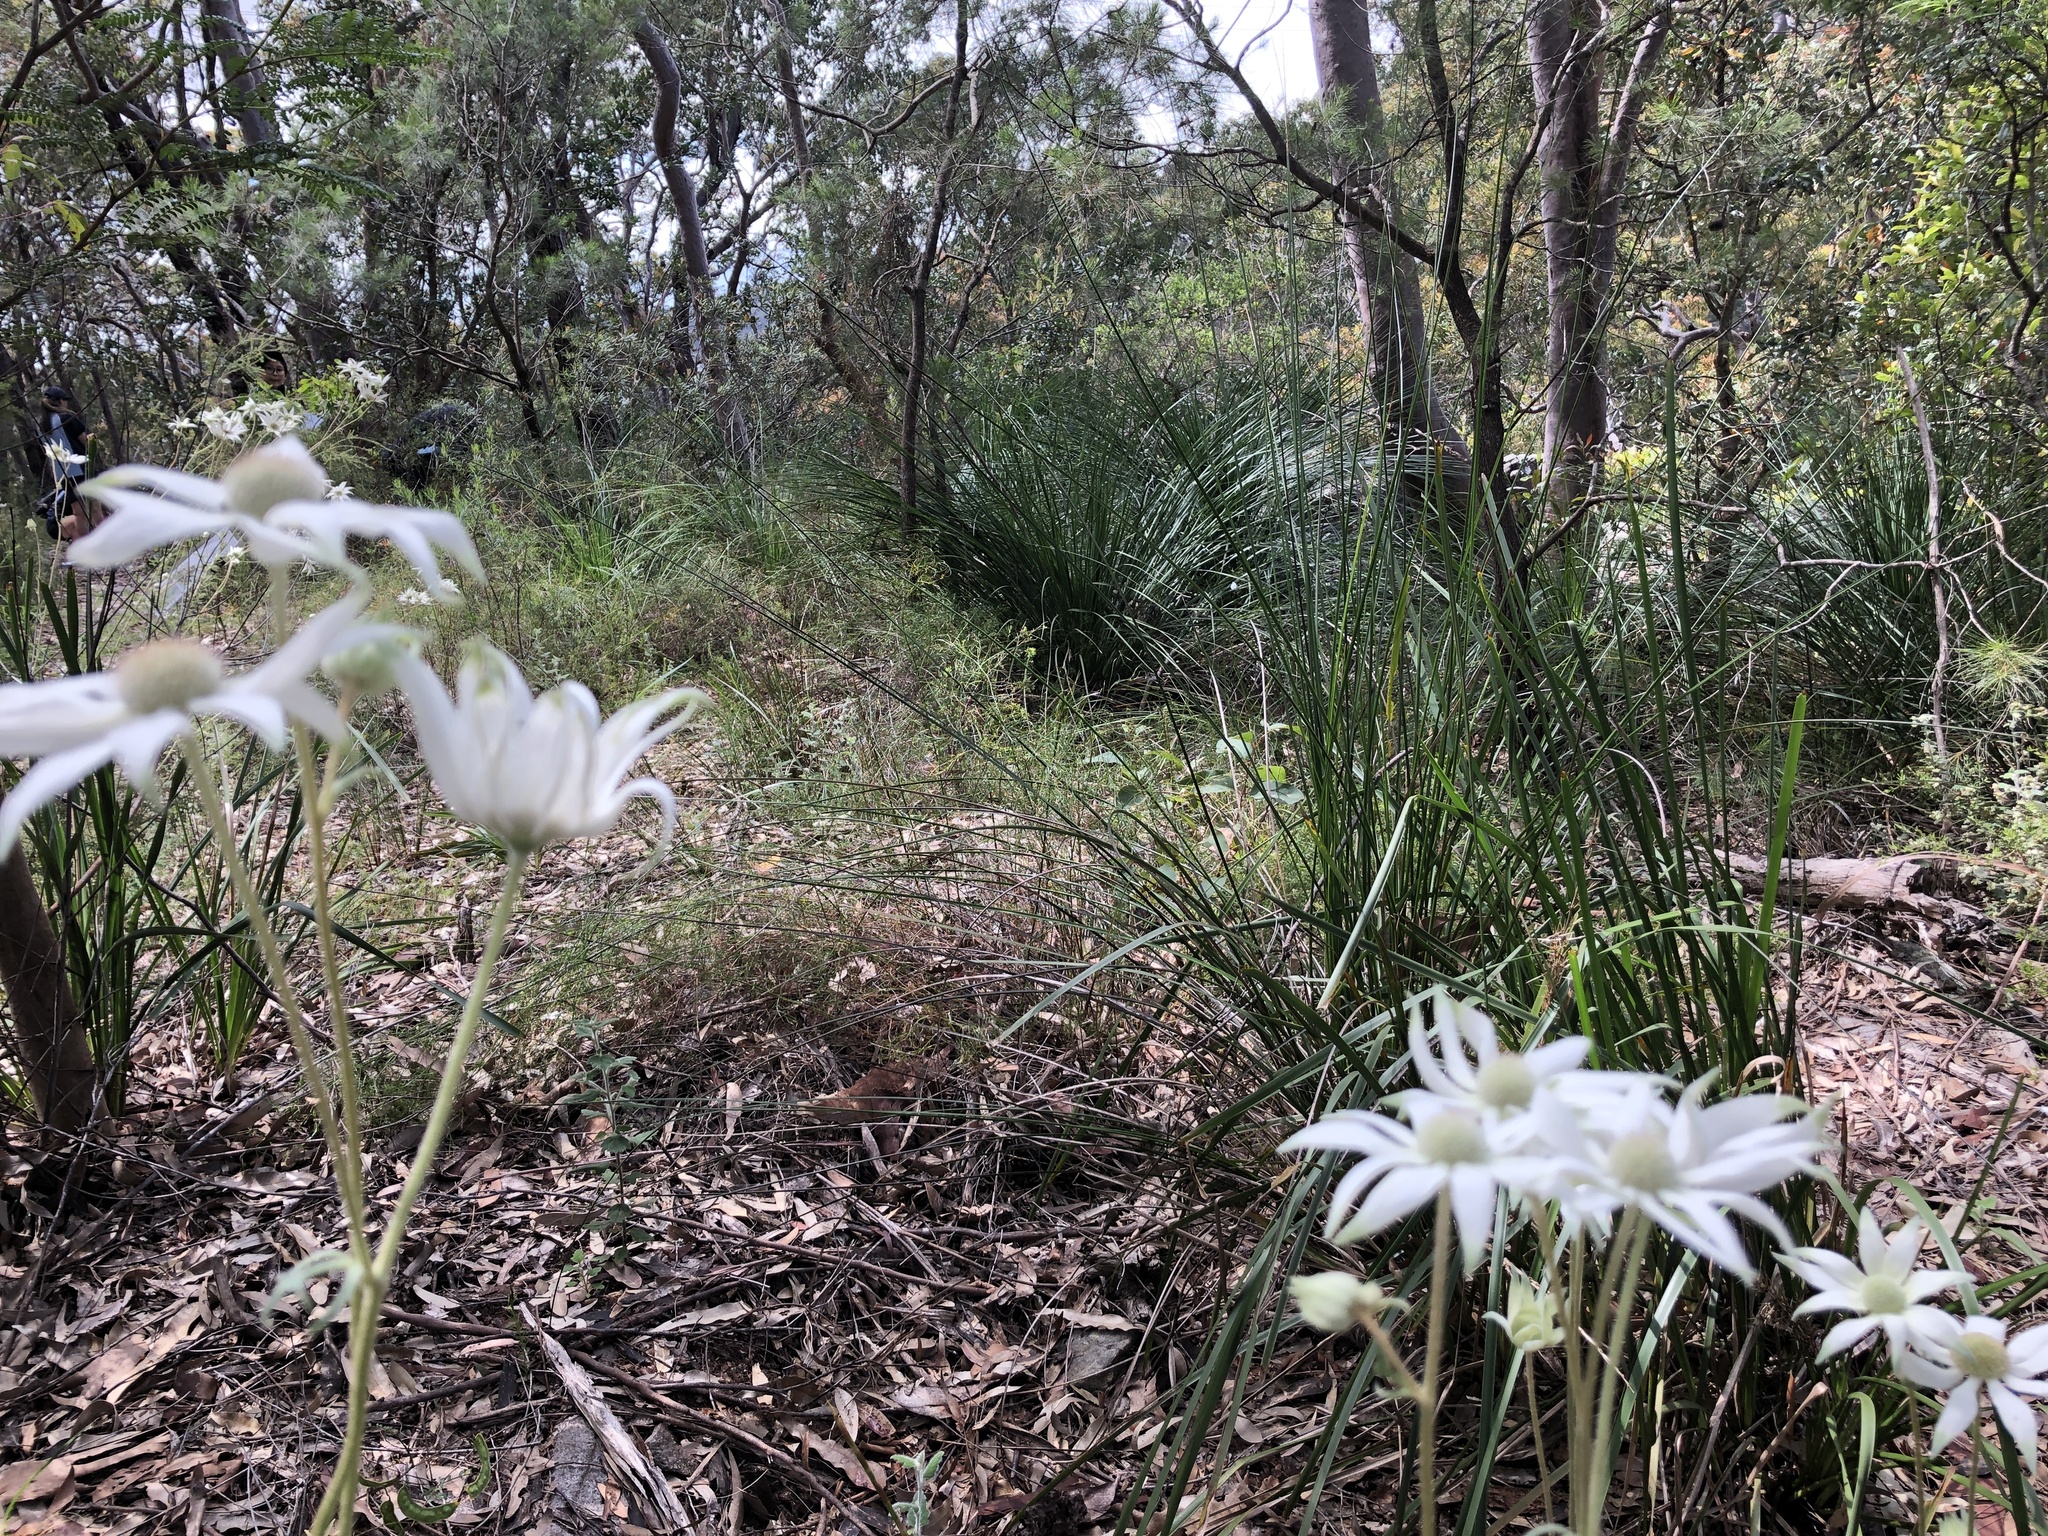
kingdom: Plantae
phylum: Tracheophyta
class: Magnoliopsida
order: Apiales
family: Apiaceae
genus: Actinotus
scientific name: Actinotus helianthi
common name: Flannel-flower
